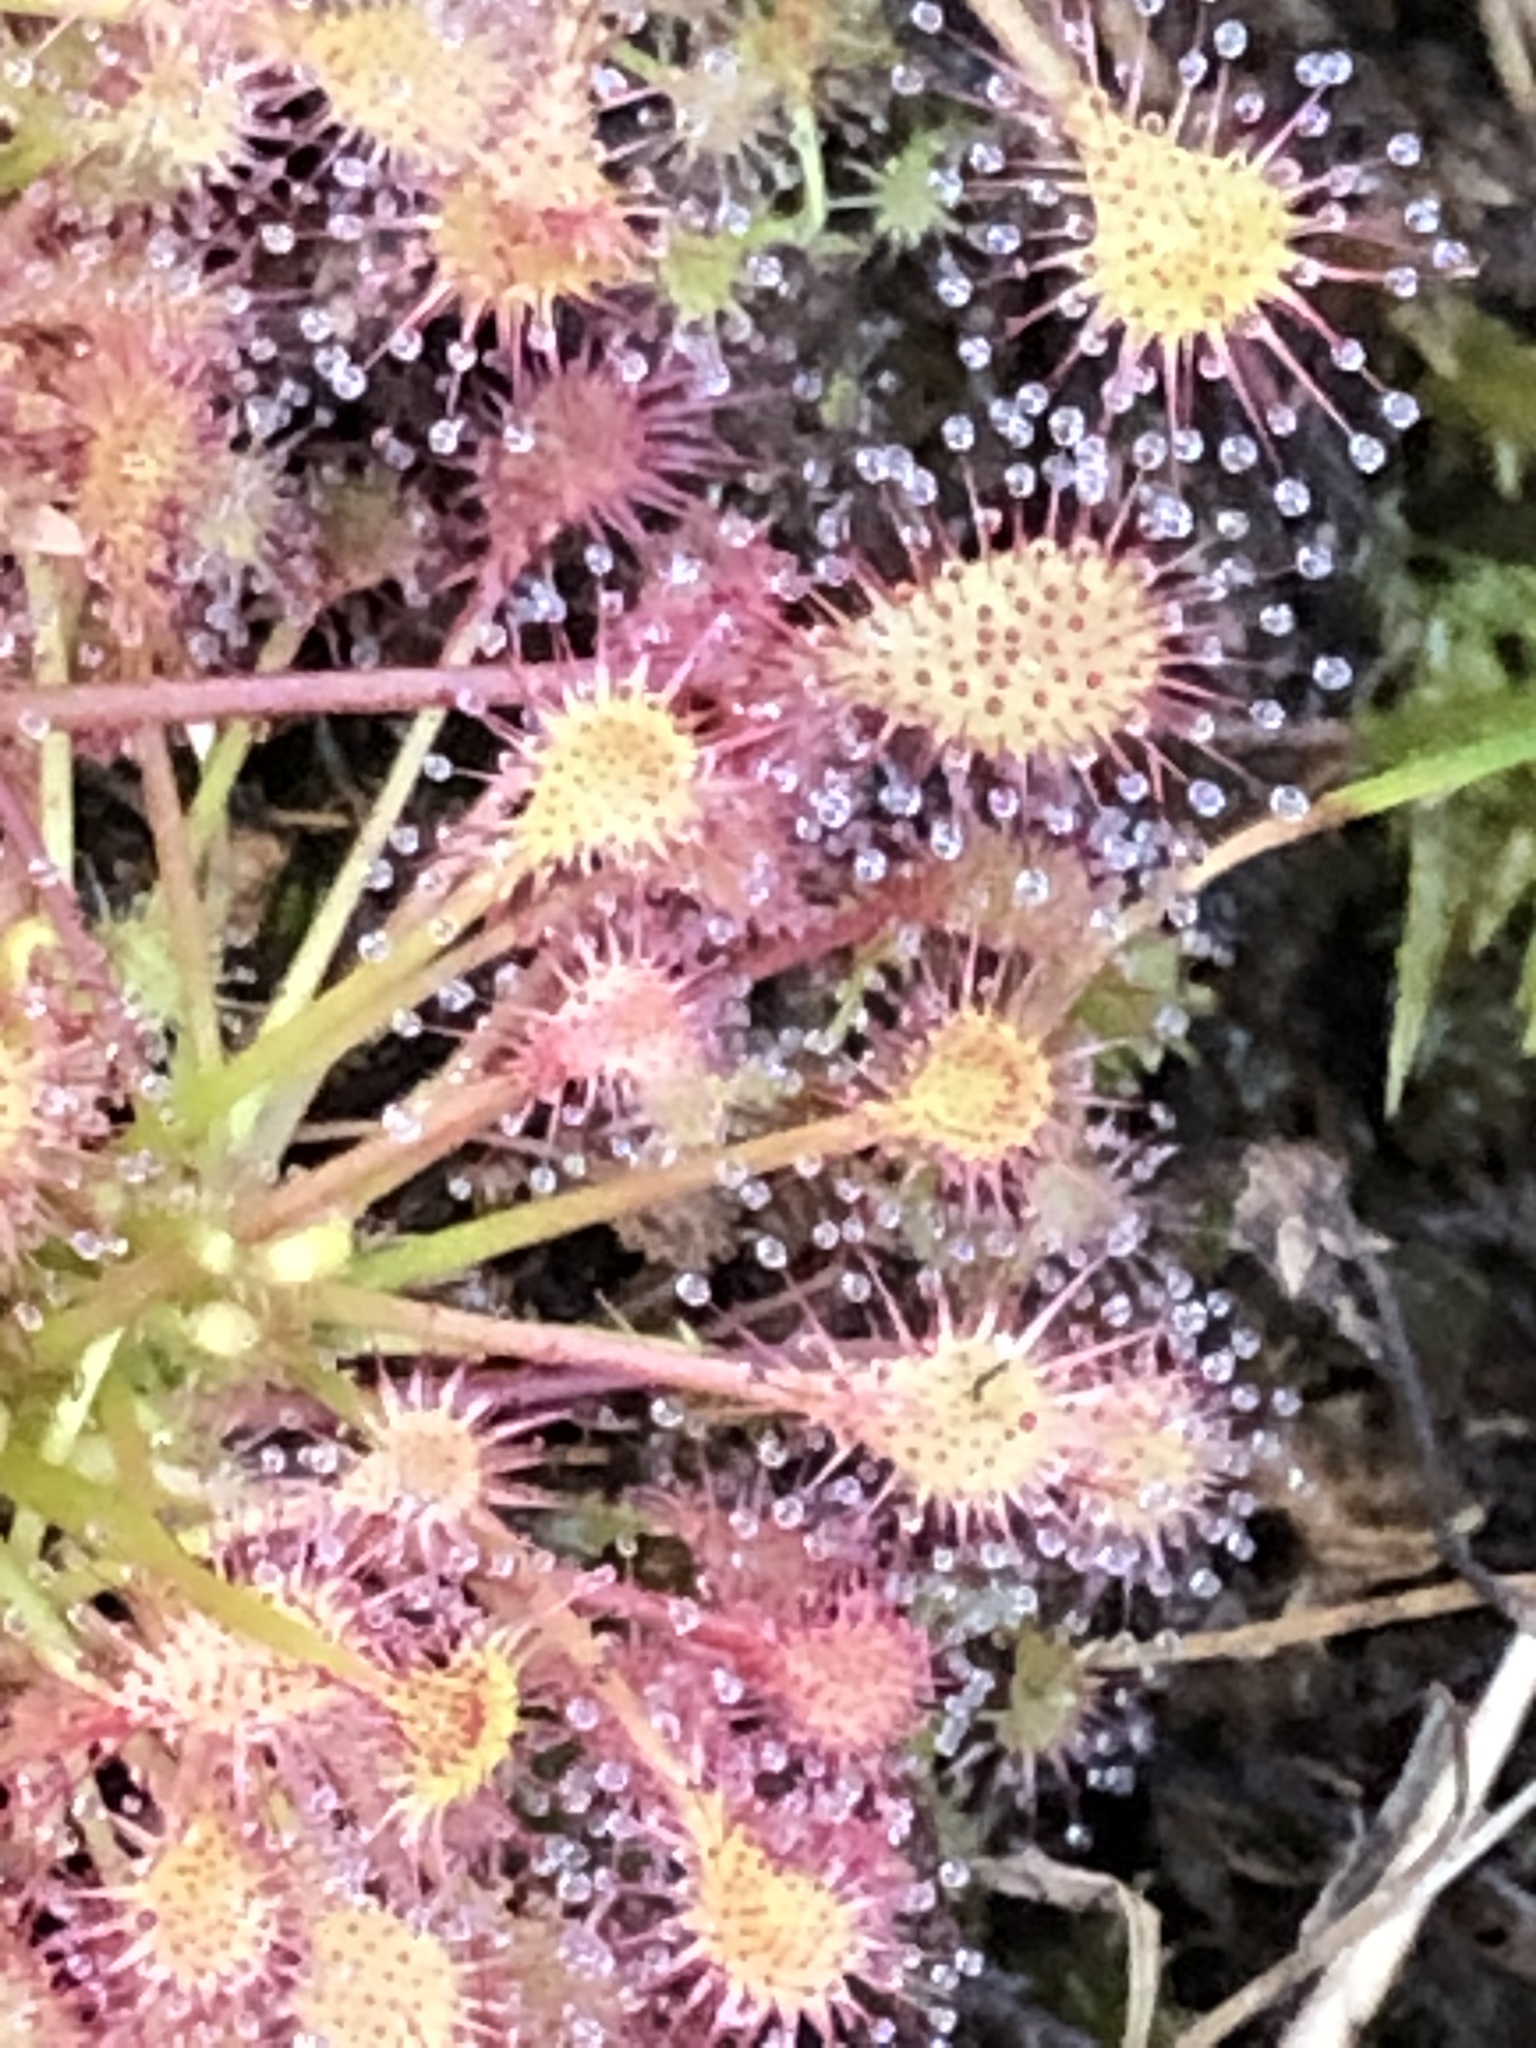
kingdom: Plantae
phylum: Tracheophyta
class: Magnoliopsida
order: Caryophyllales
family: Droseraceae
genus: Drosera
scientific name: Drosera intermedia
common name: Oblong-leaved sundew
